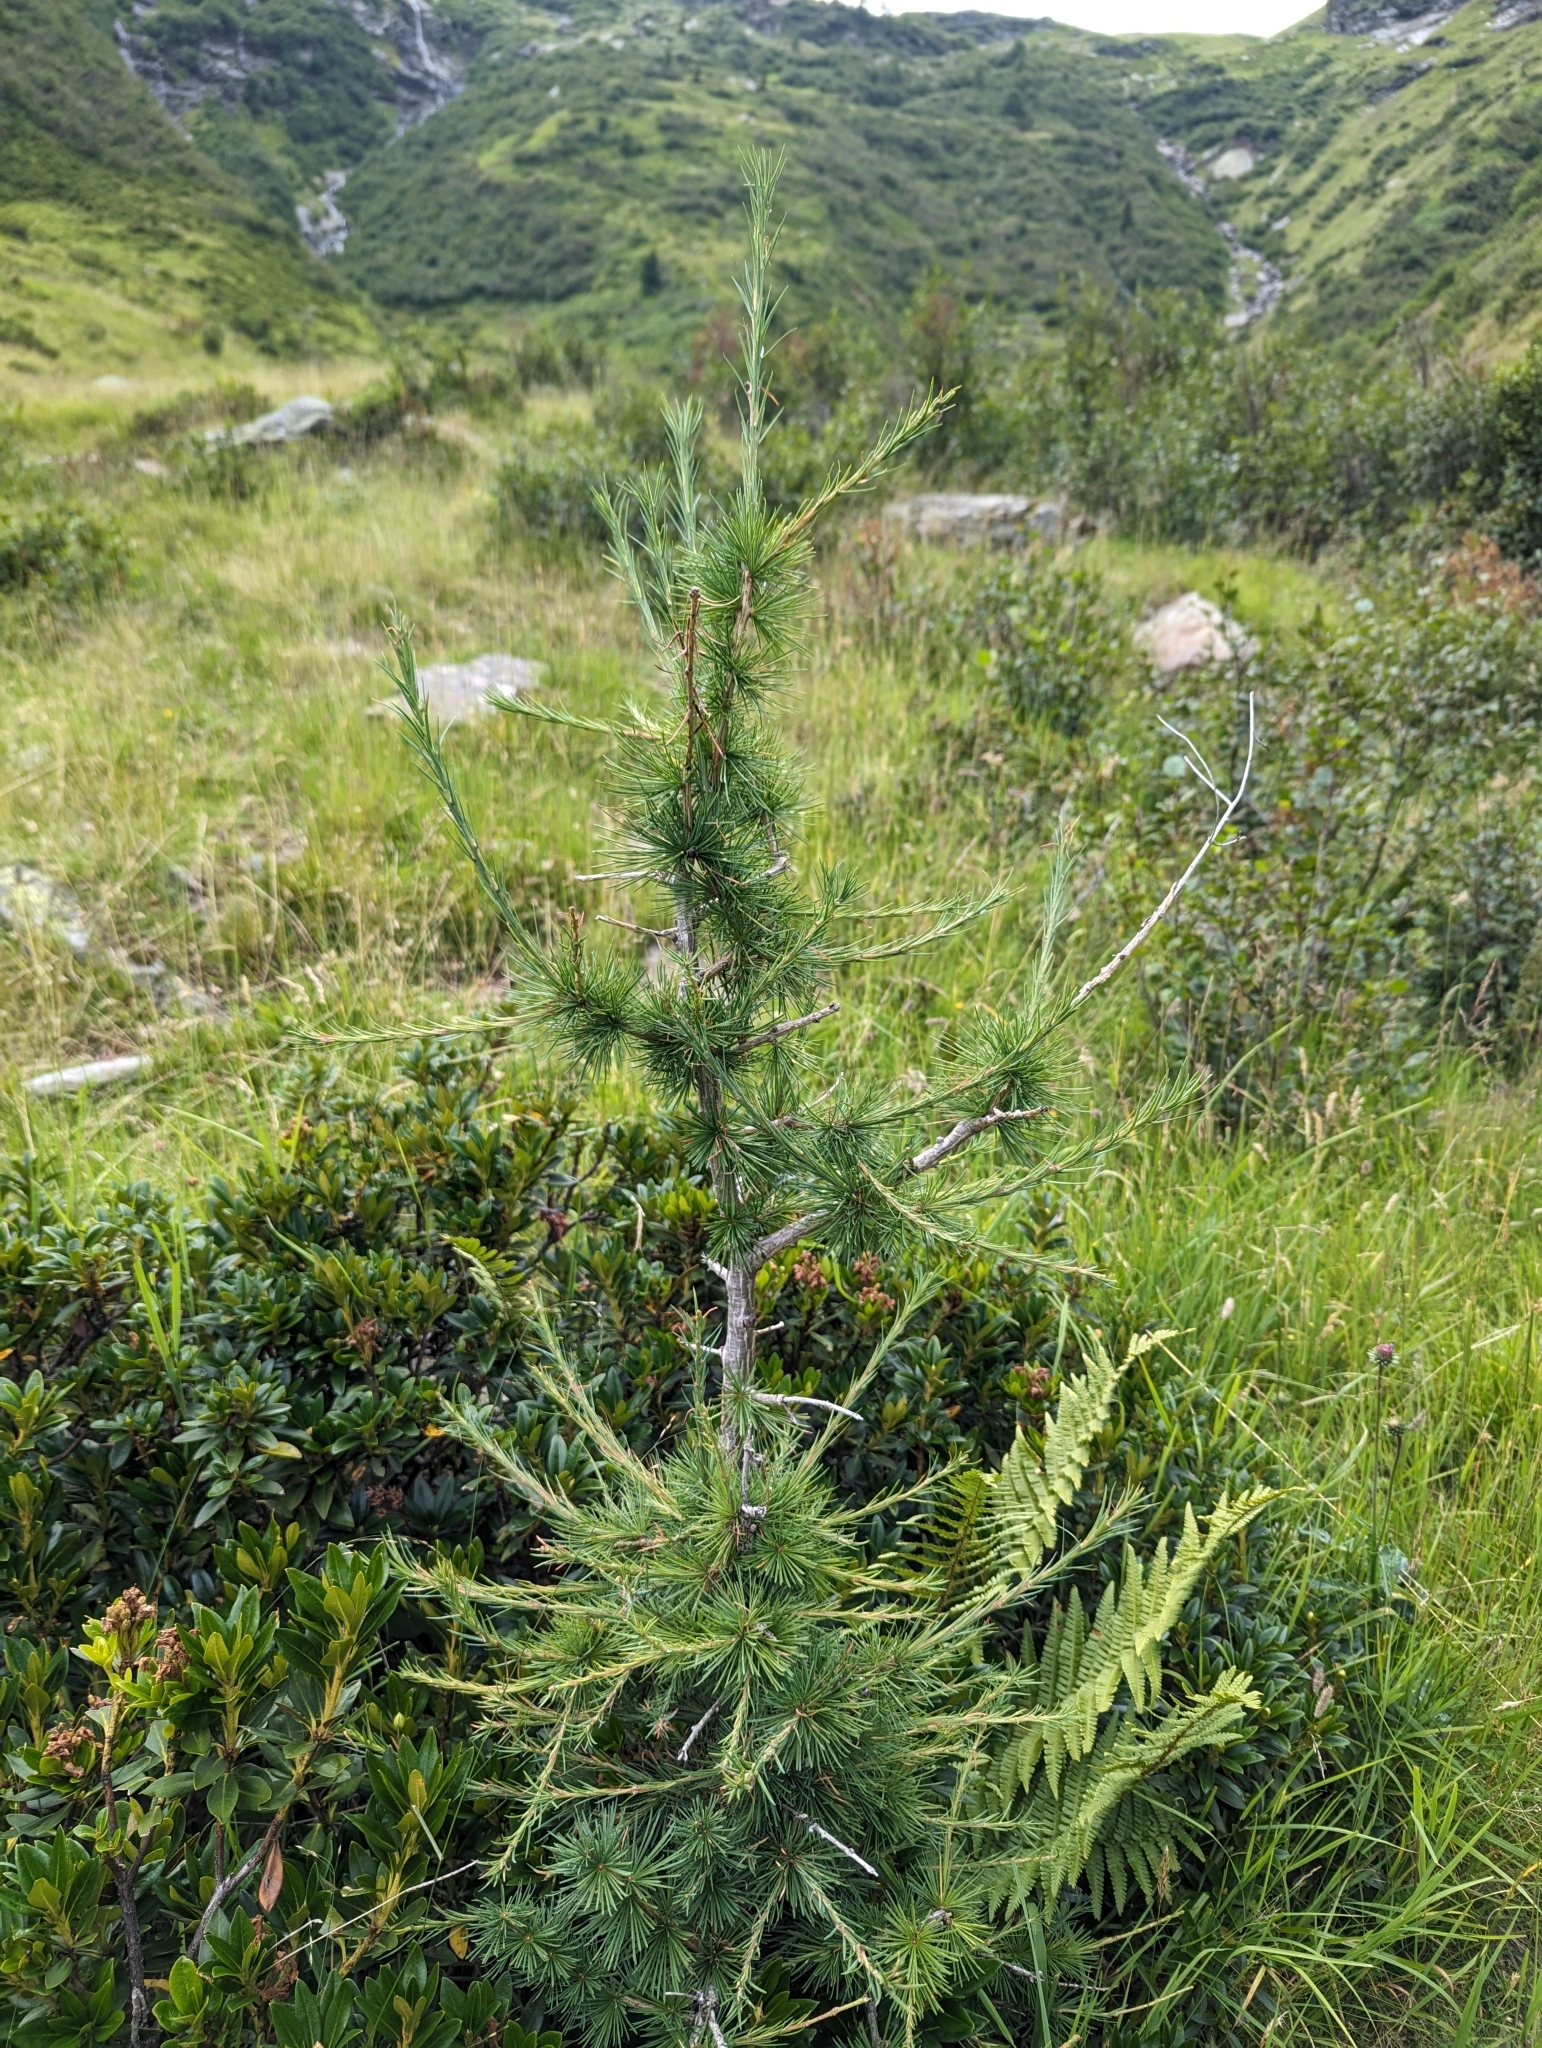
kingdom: Plantae
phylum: Tracheophyta
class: Pinopsida
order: Pinales
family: Pinaceae
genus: Larix
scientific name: Larix decidua
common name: European larch
